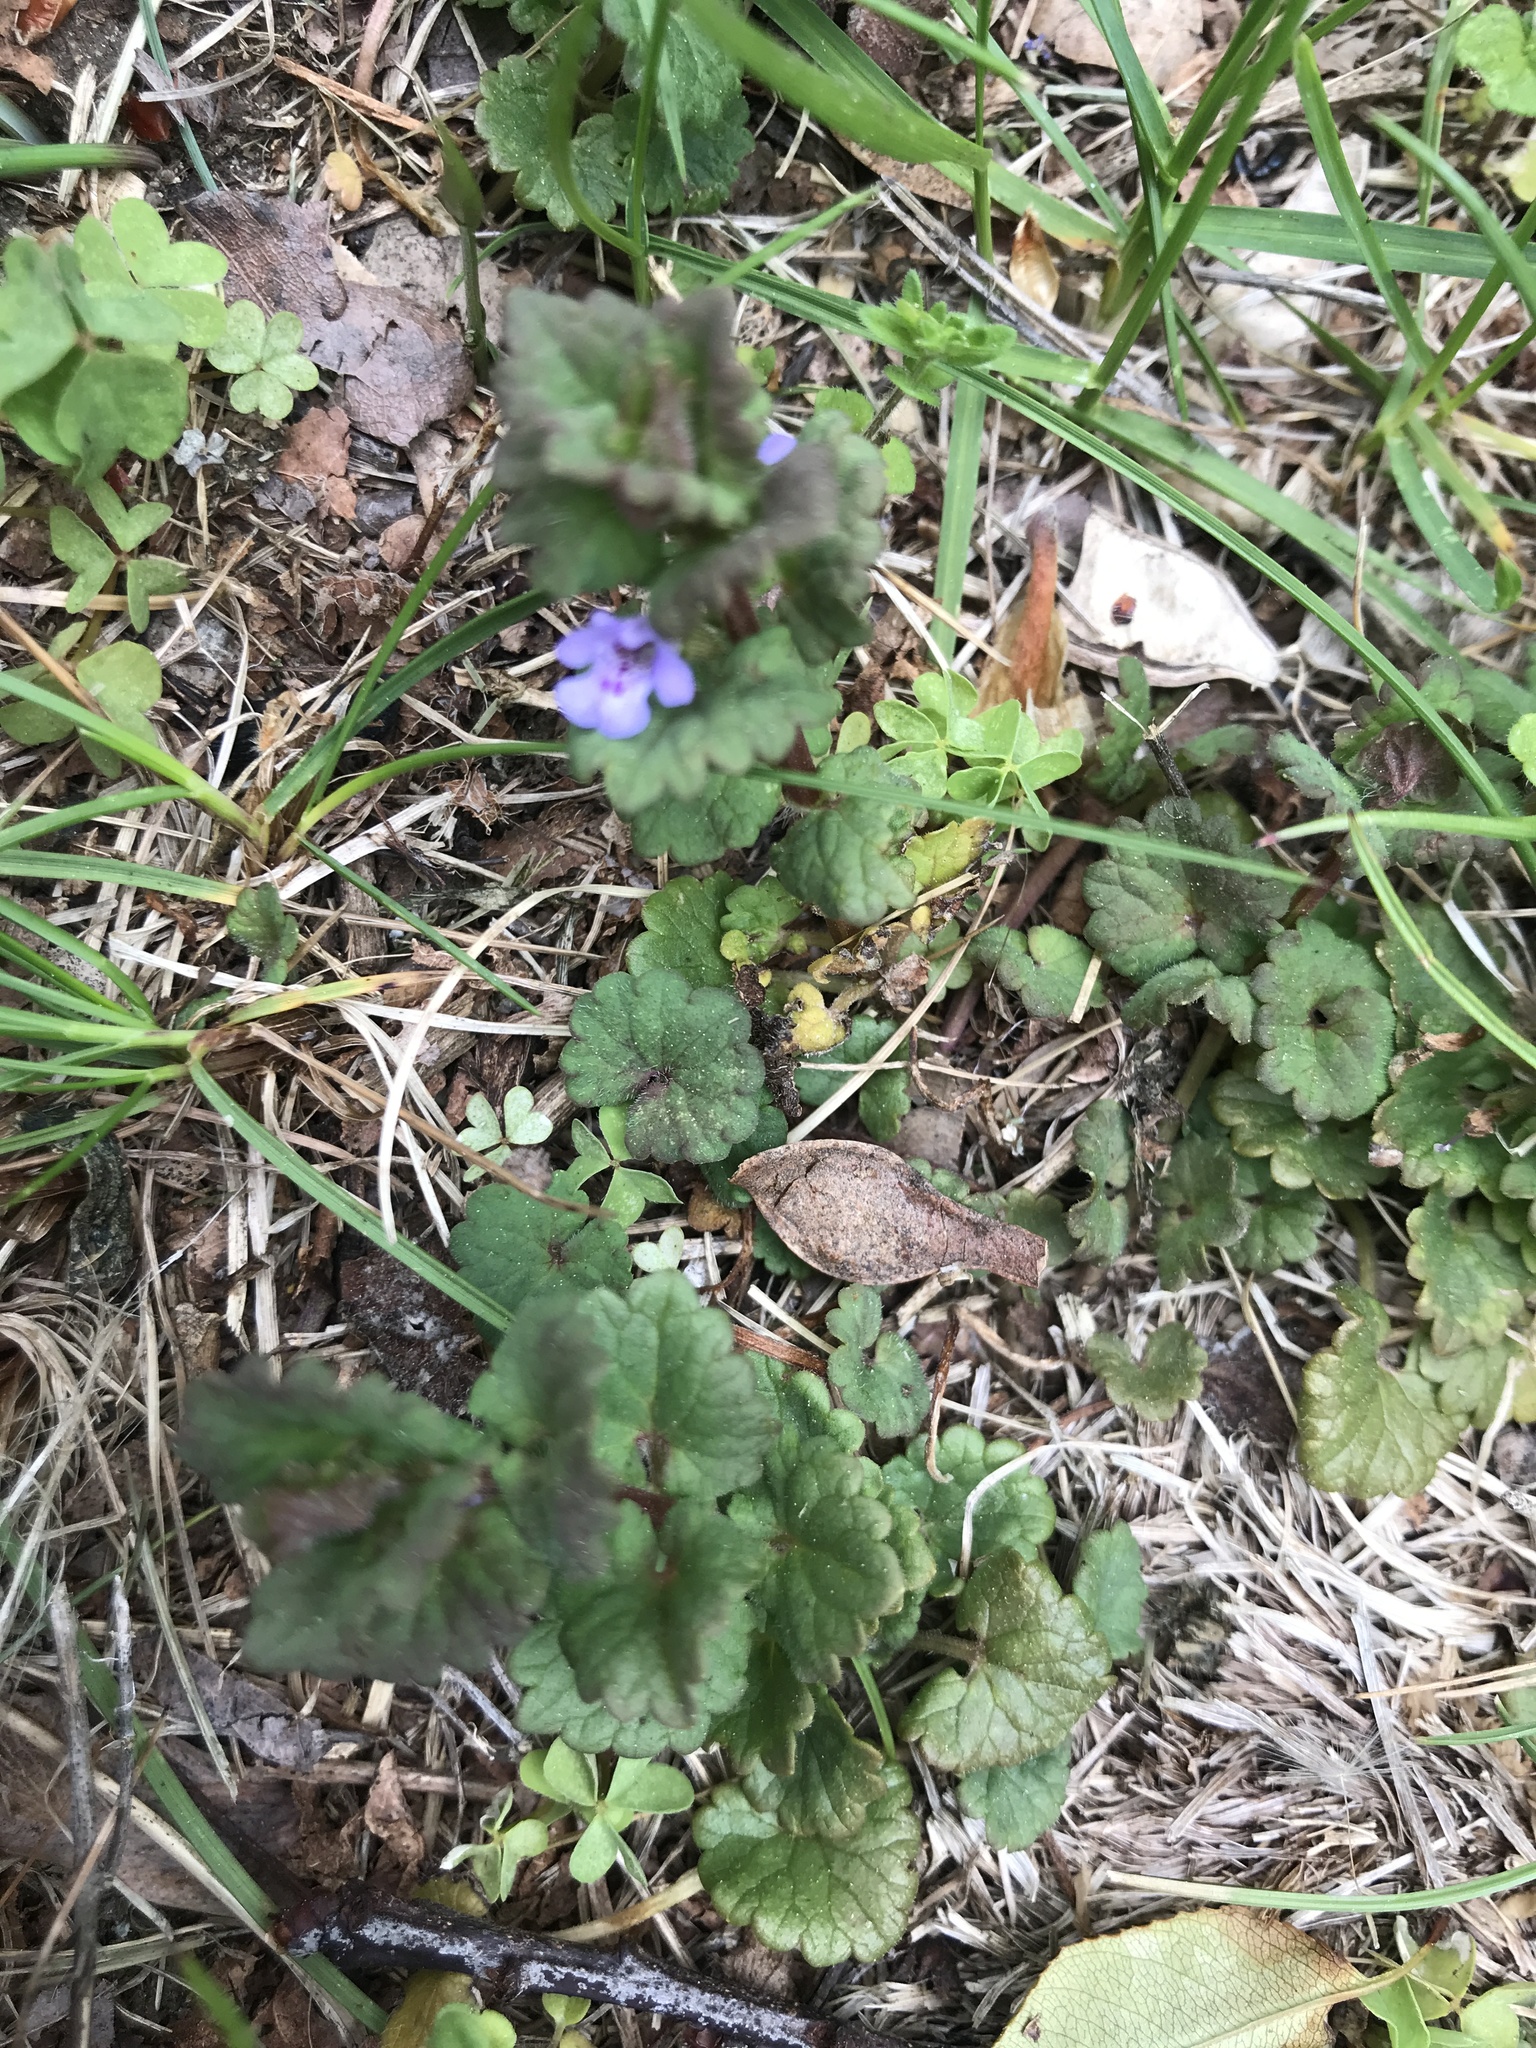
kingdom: Plantae
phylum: Tracheophyta
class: Magnoliopsida
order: Lamiales
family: Lamiaceae
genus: Glechoma
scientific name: Glechoma hederacea
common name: Ground ivy
